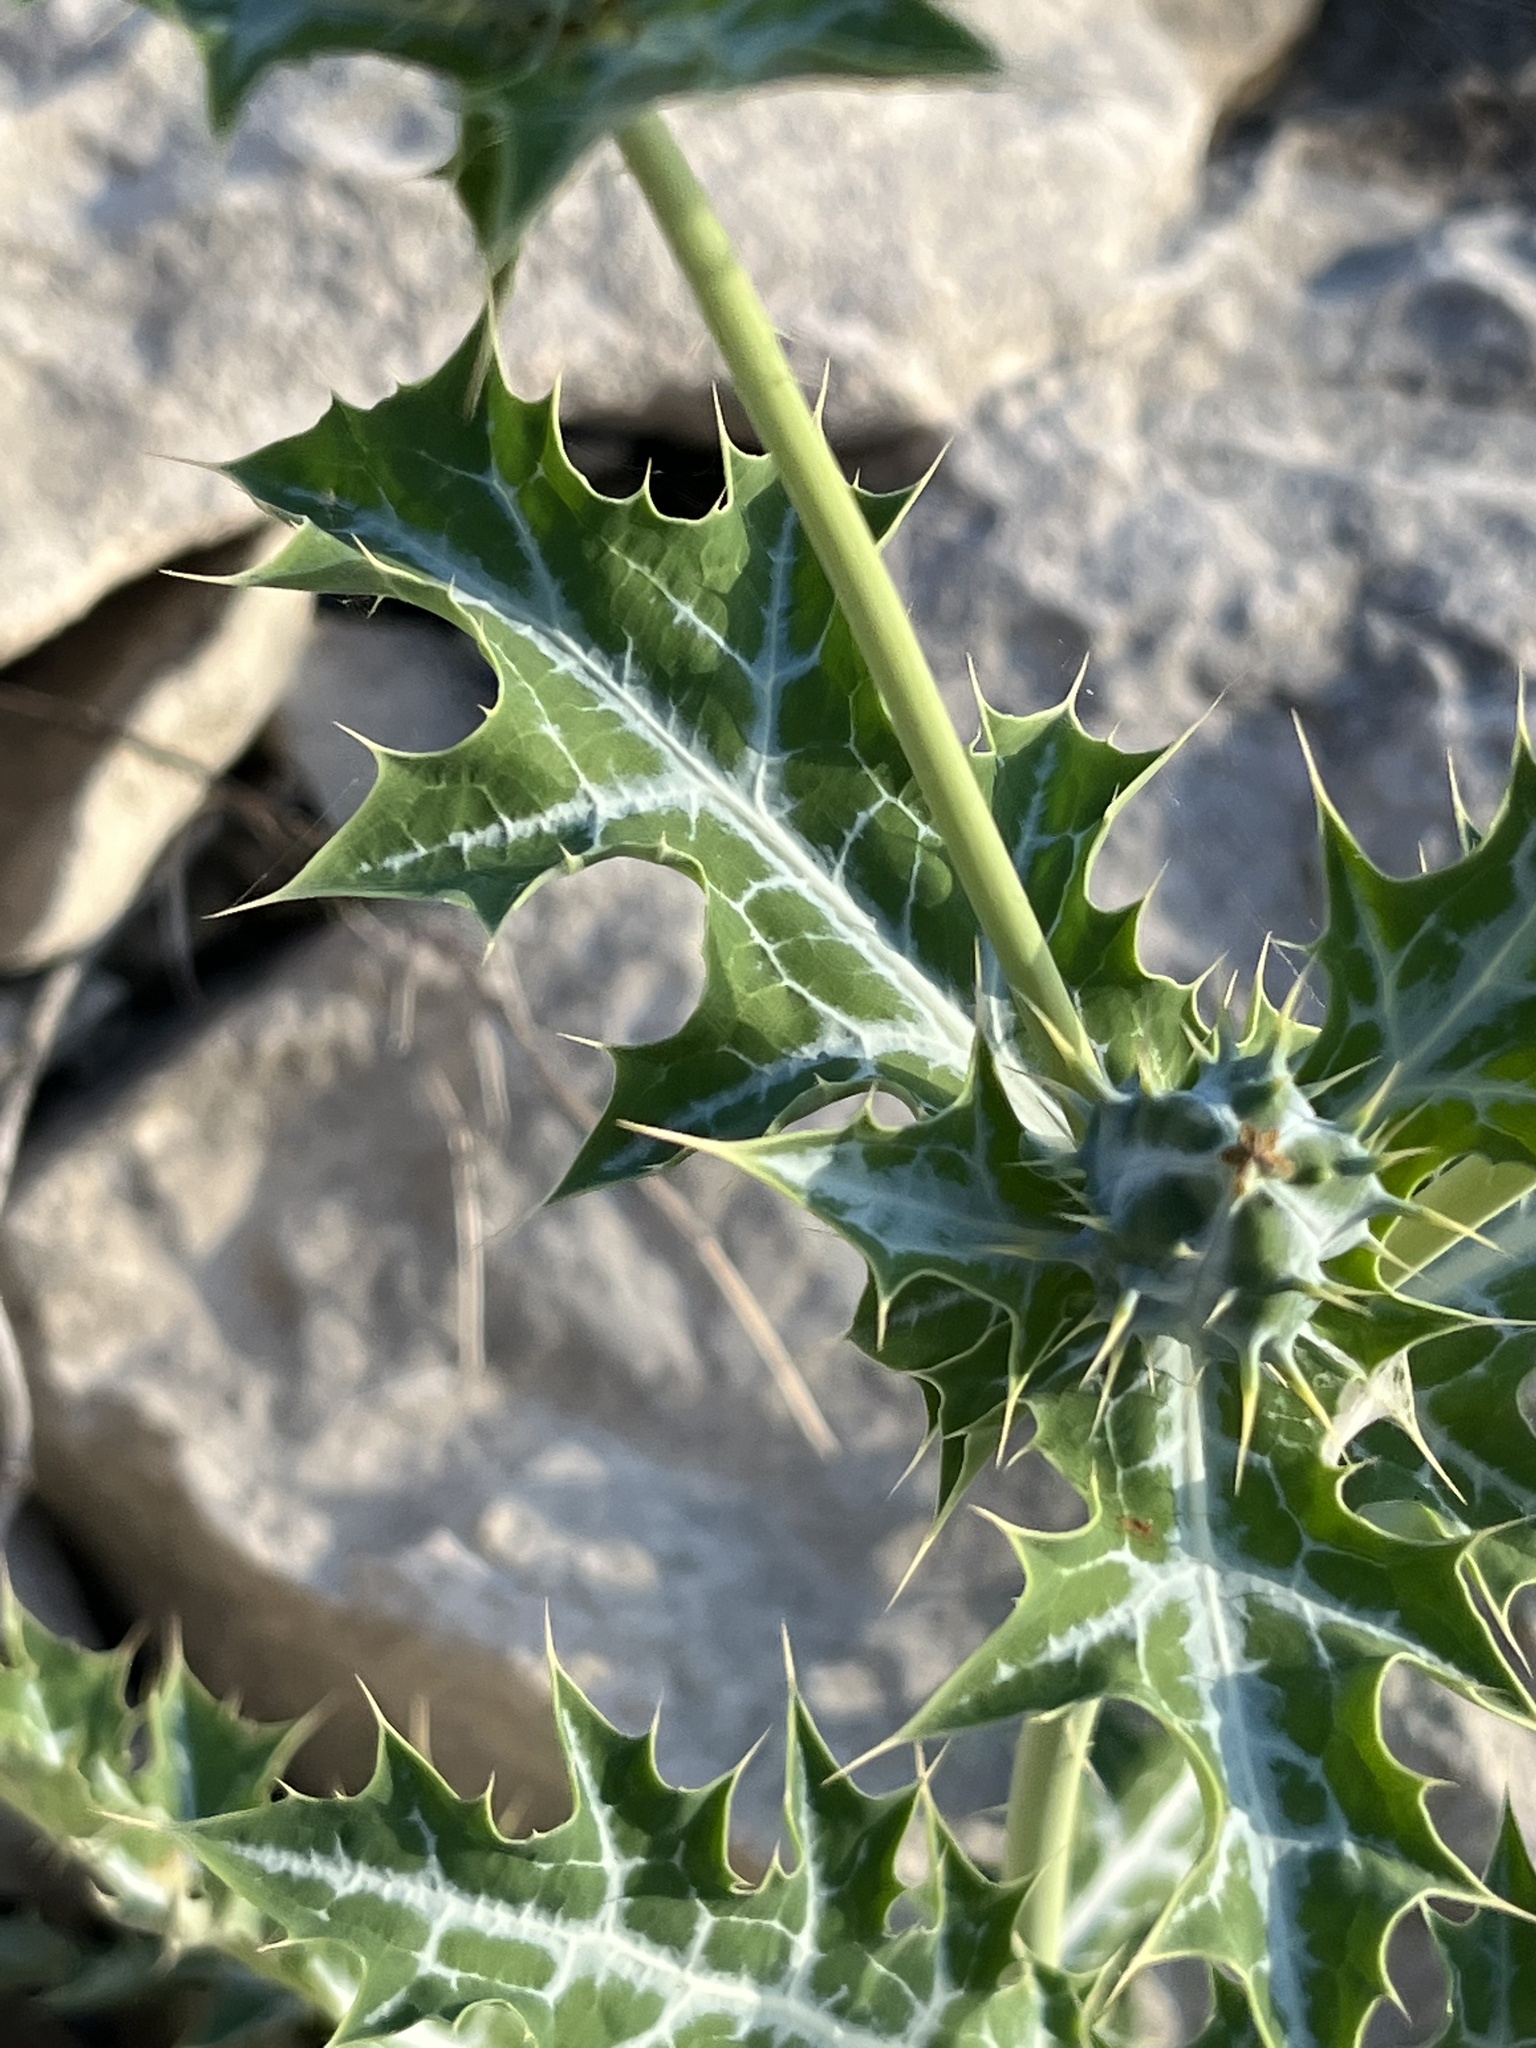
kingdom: Plantae
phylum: Tracheophyta
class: Magnoliopsida
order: Ranunculales
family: Papaveraceae
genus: Argemone
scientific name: Argemone mexicana
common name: Mexican poppy
